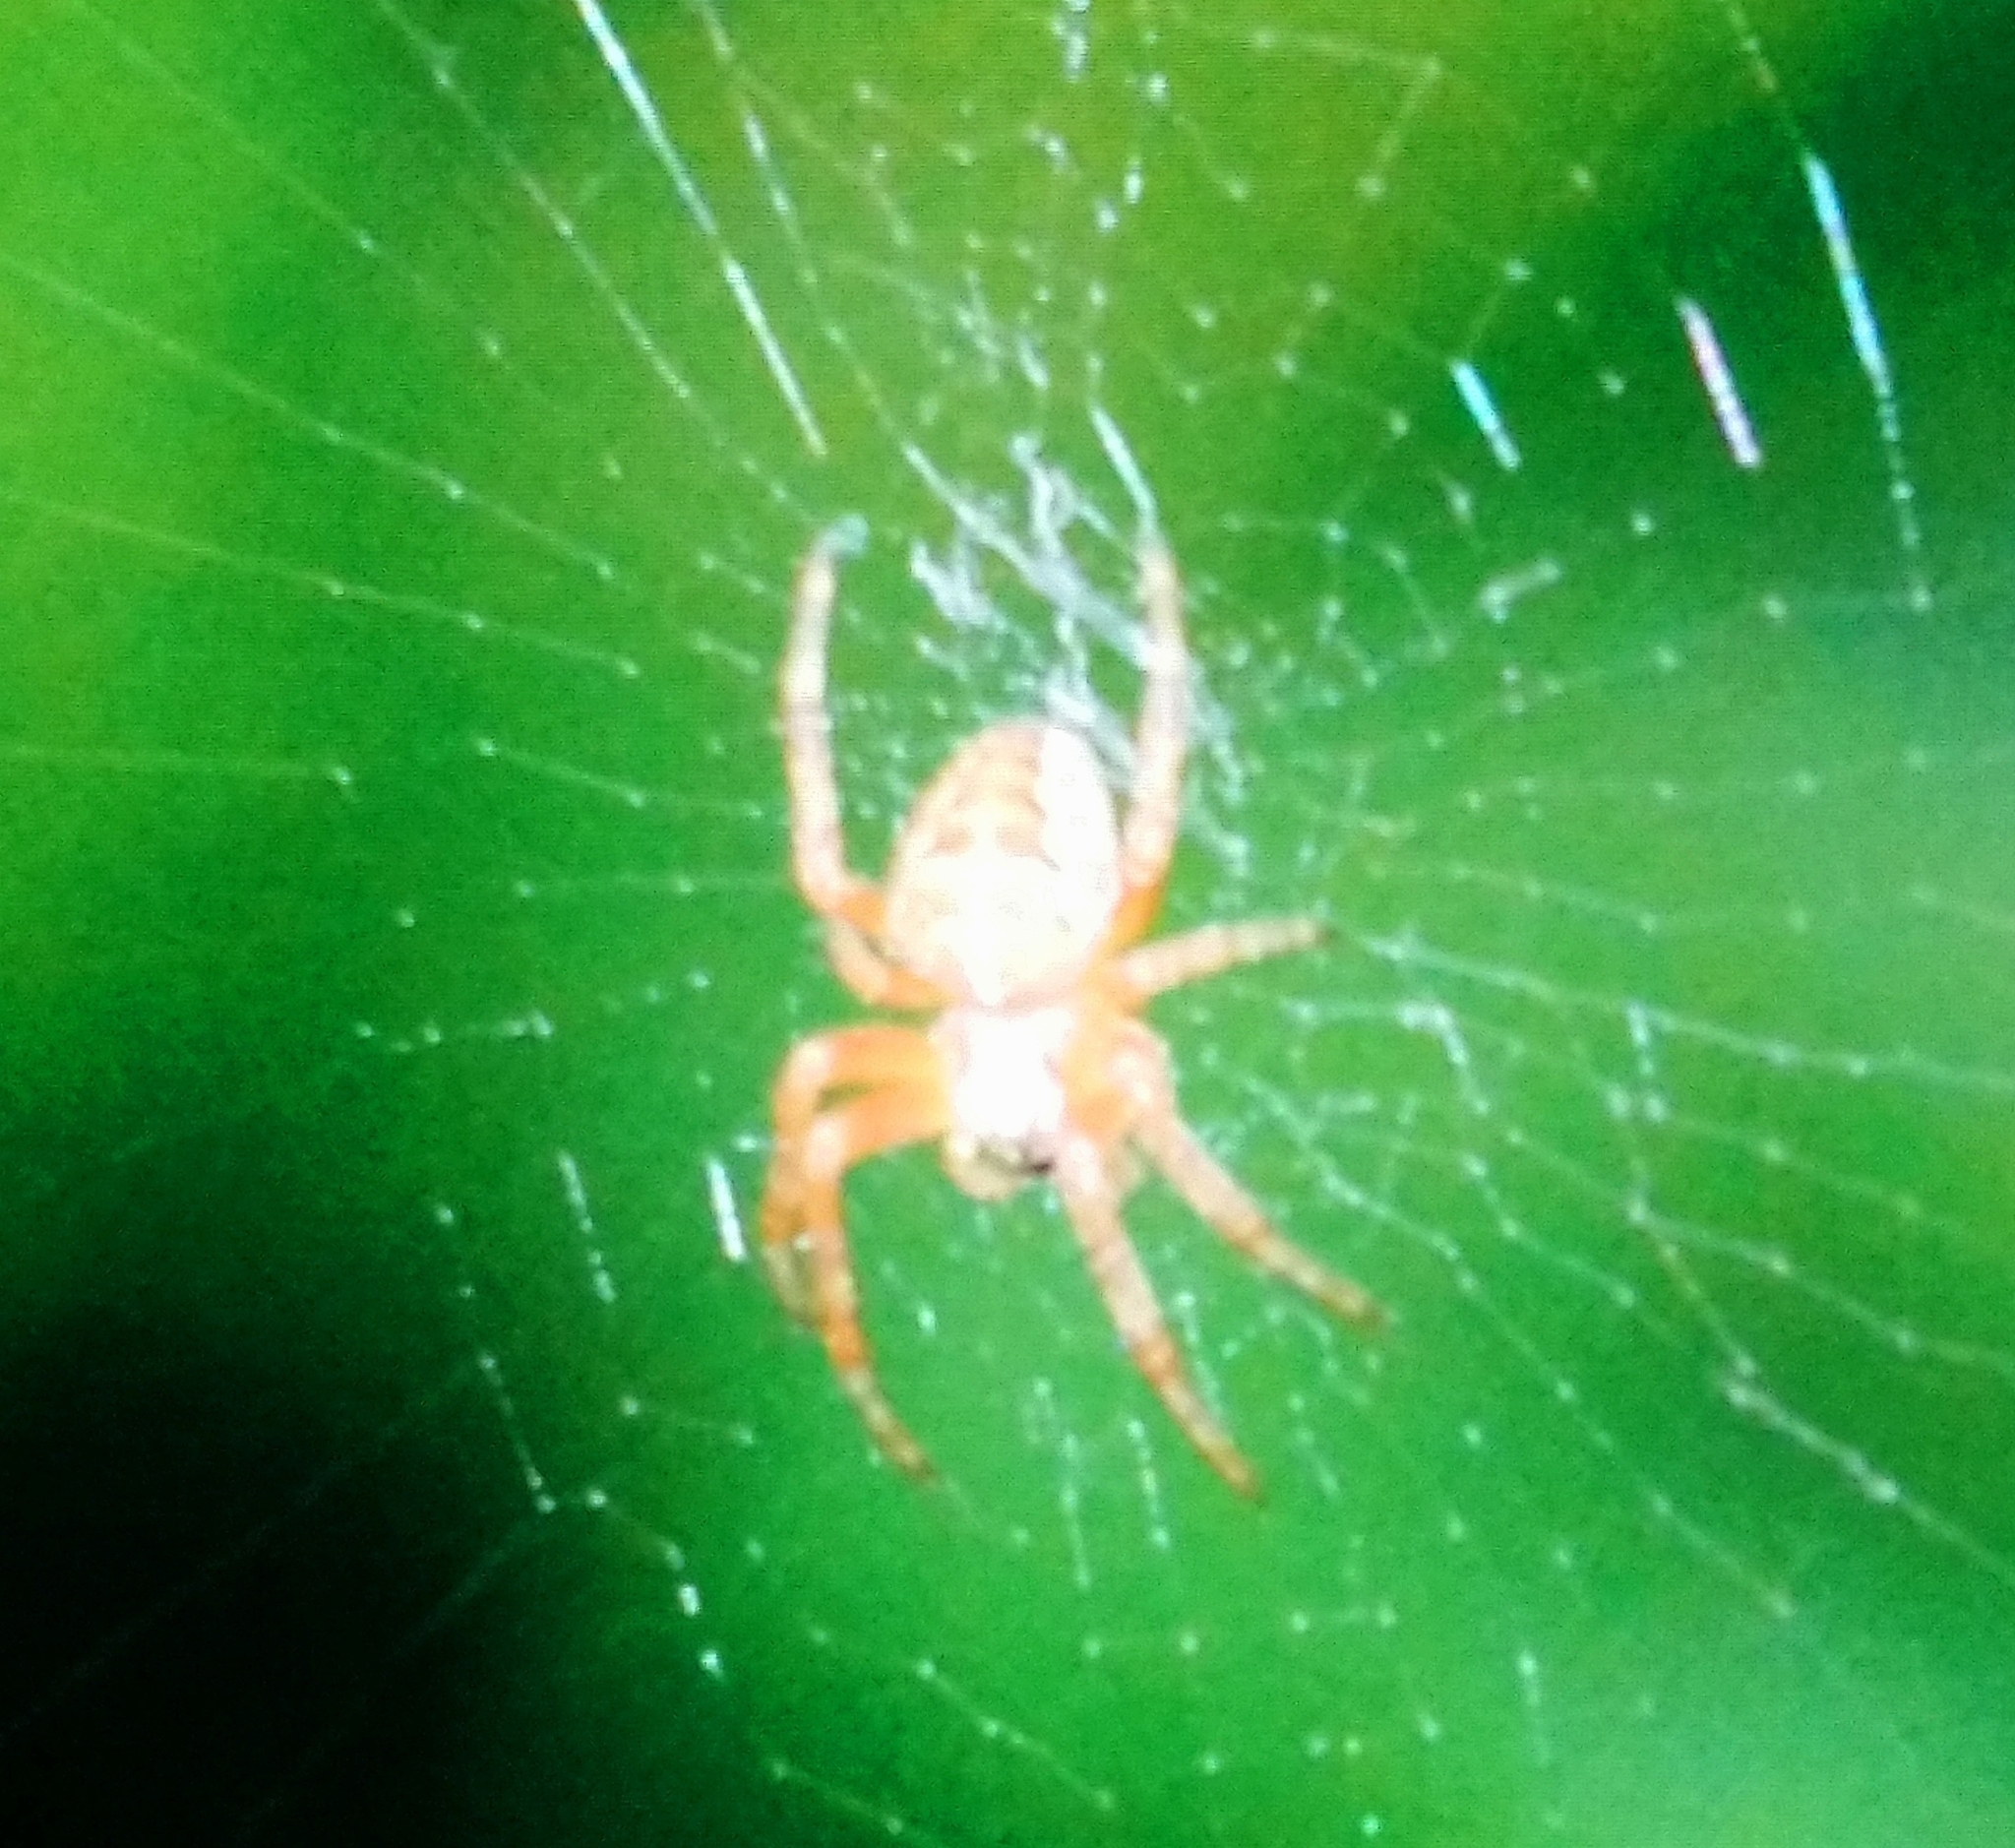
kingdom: Animalia
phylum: Arthropoda
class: Arachnida
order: Araneae
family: Araneidae
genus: Araneus
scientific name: Araneus diadematus
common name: Cross orbweaver
